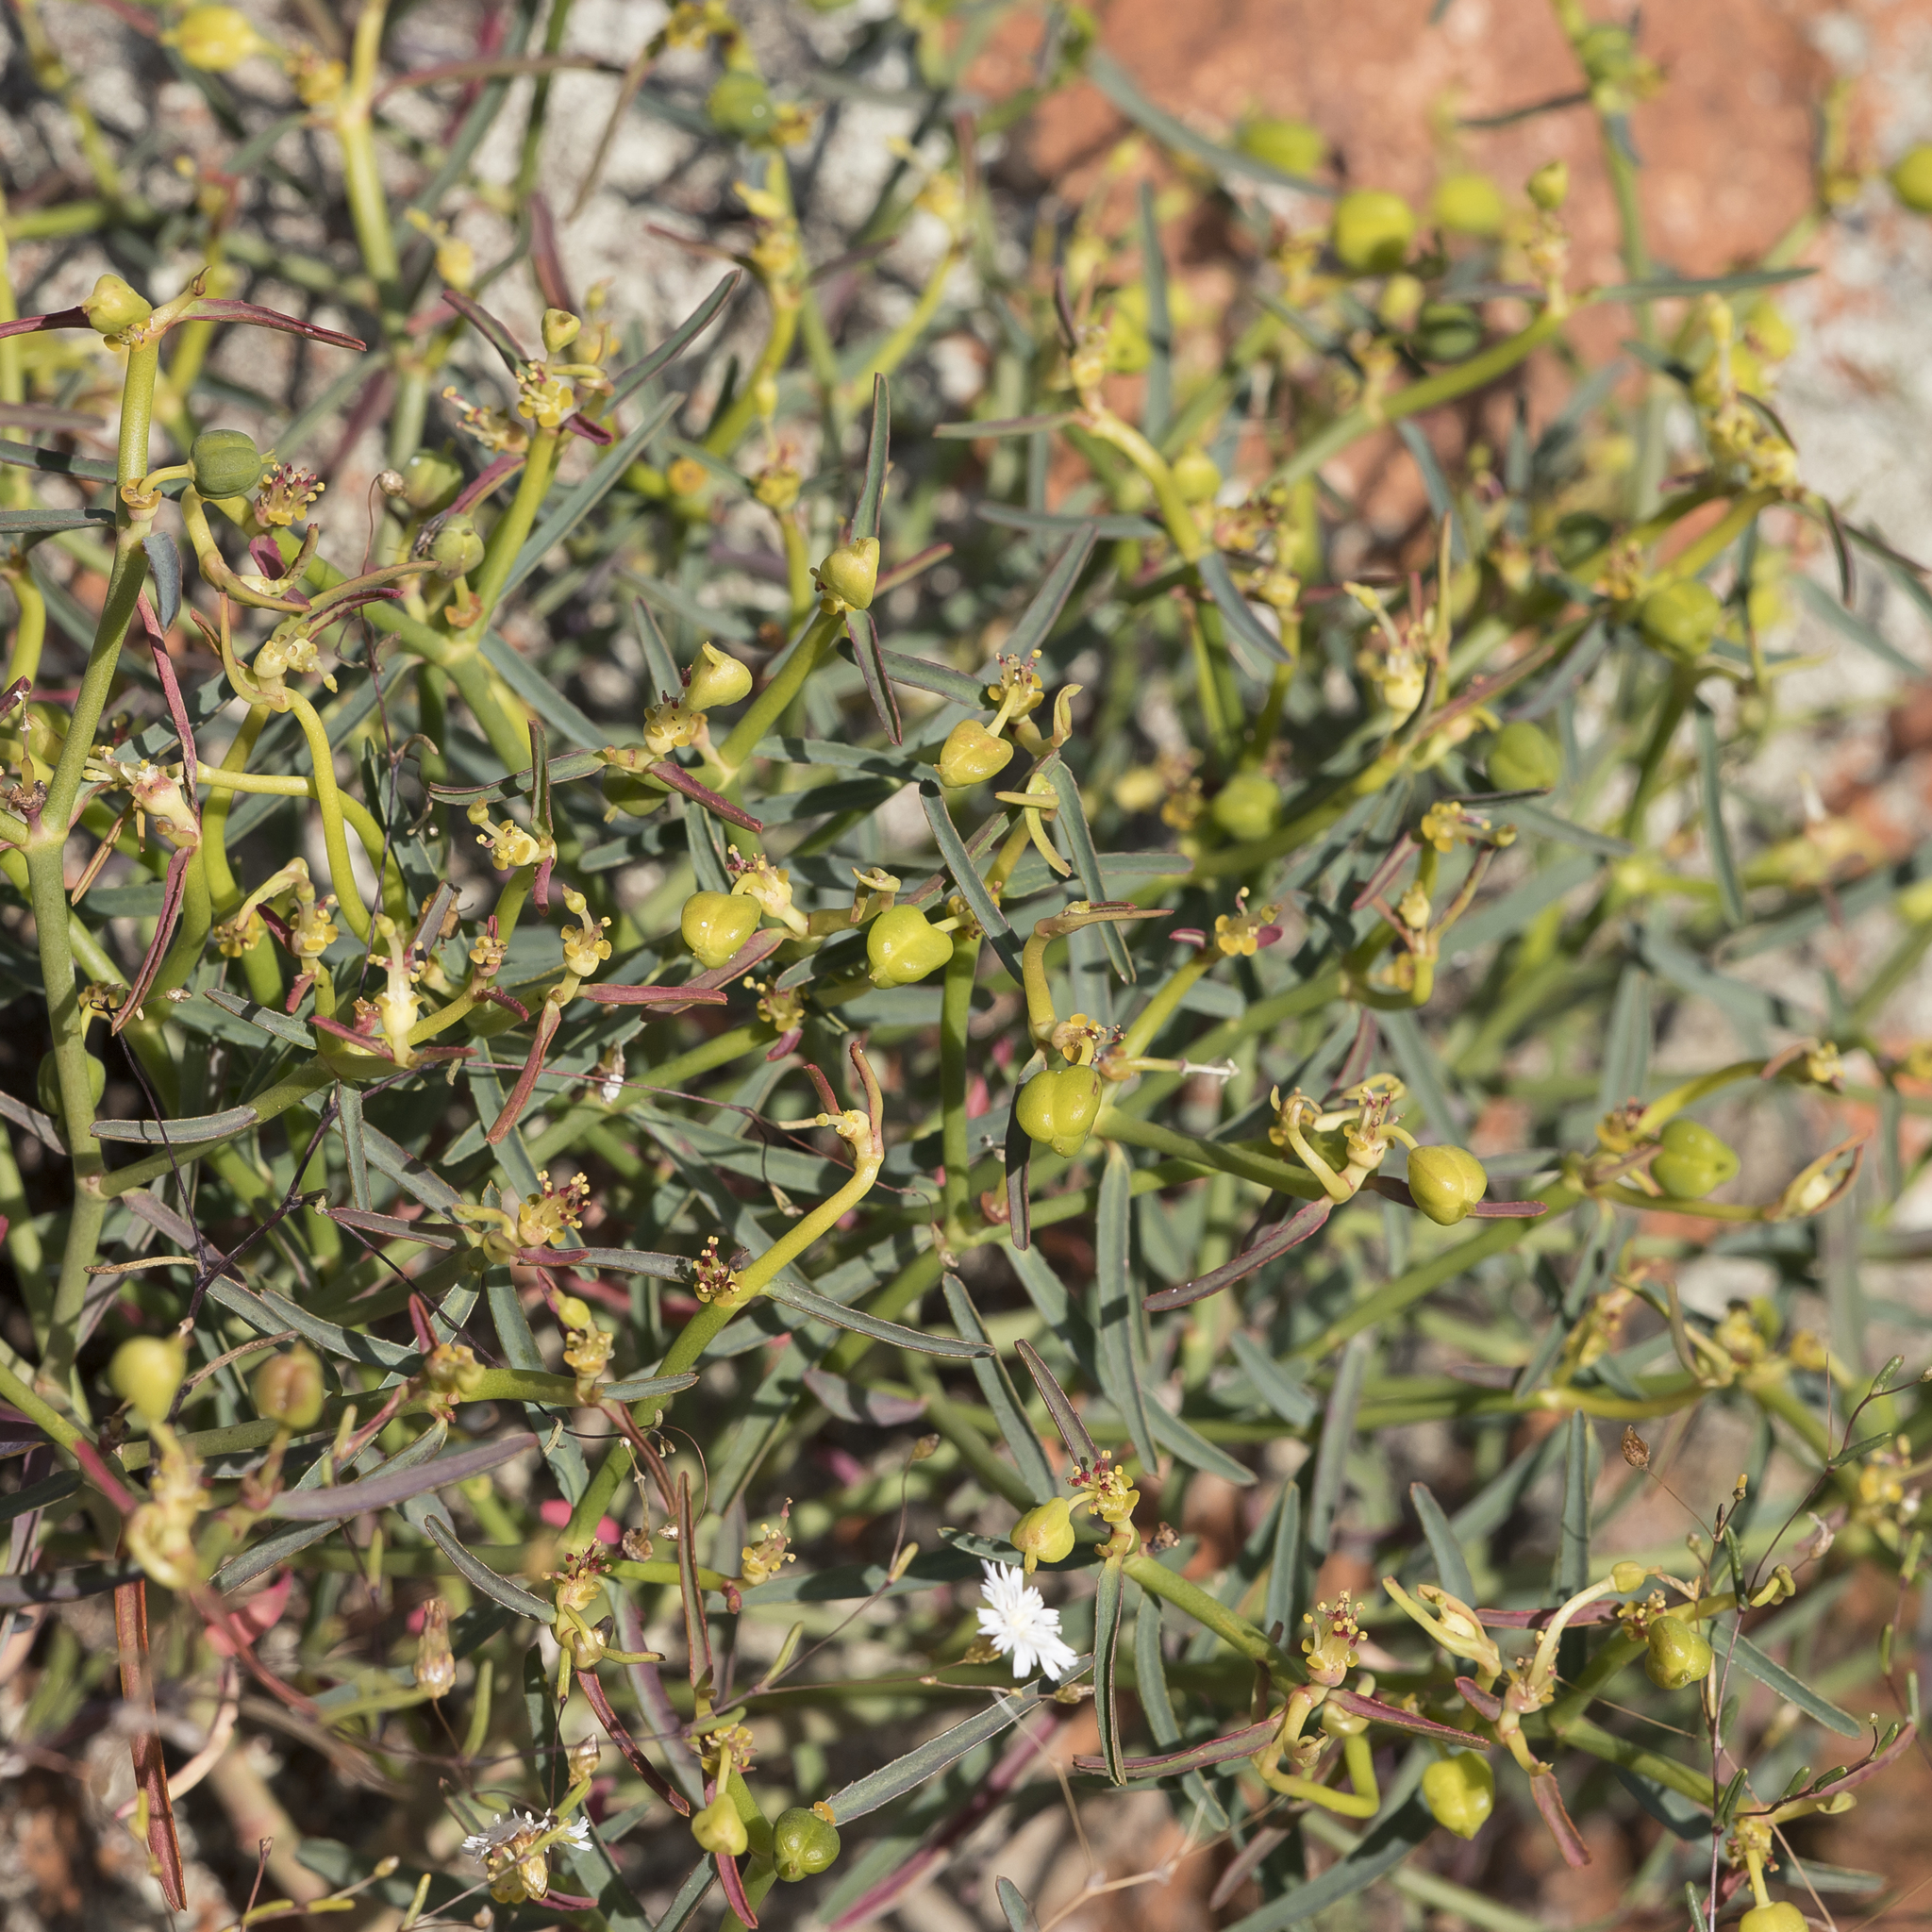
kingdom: Plantae
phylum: Tracheophyta
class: Magnoliopsida
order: Malpighiales
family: Euphorbiaceae
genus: Euphorbia
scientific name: Euphorbia tannensis
